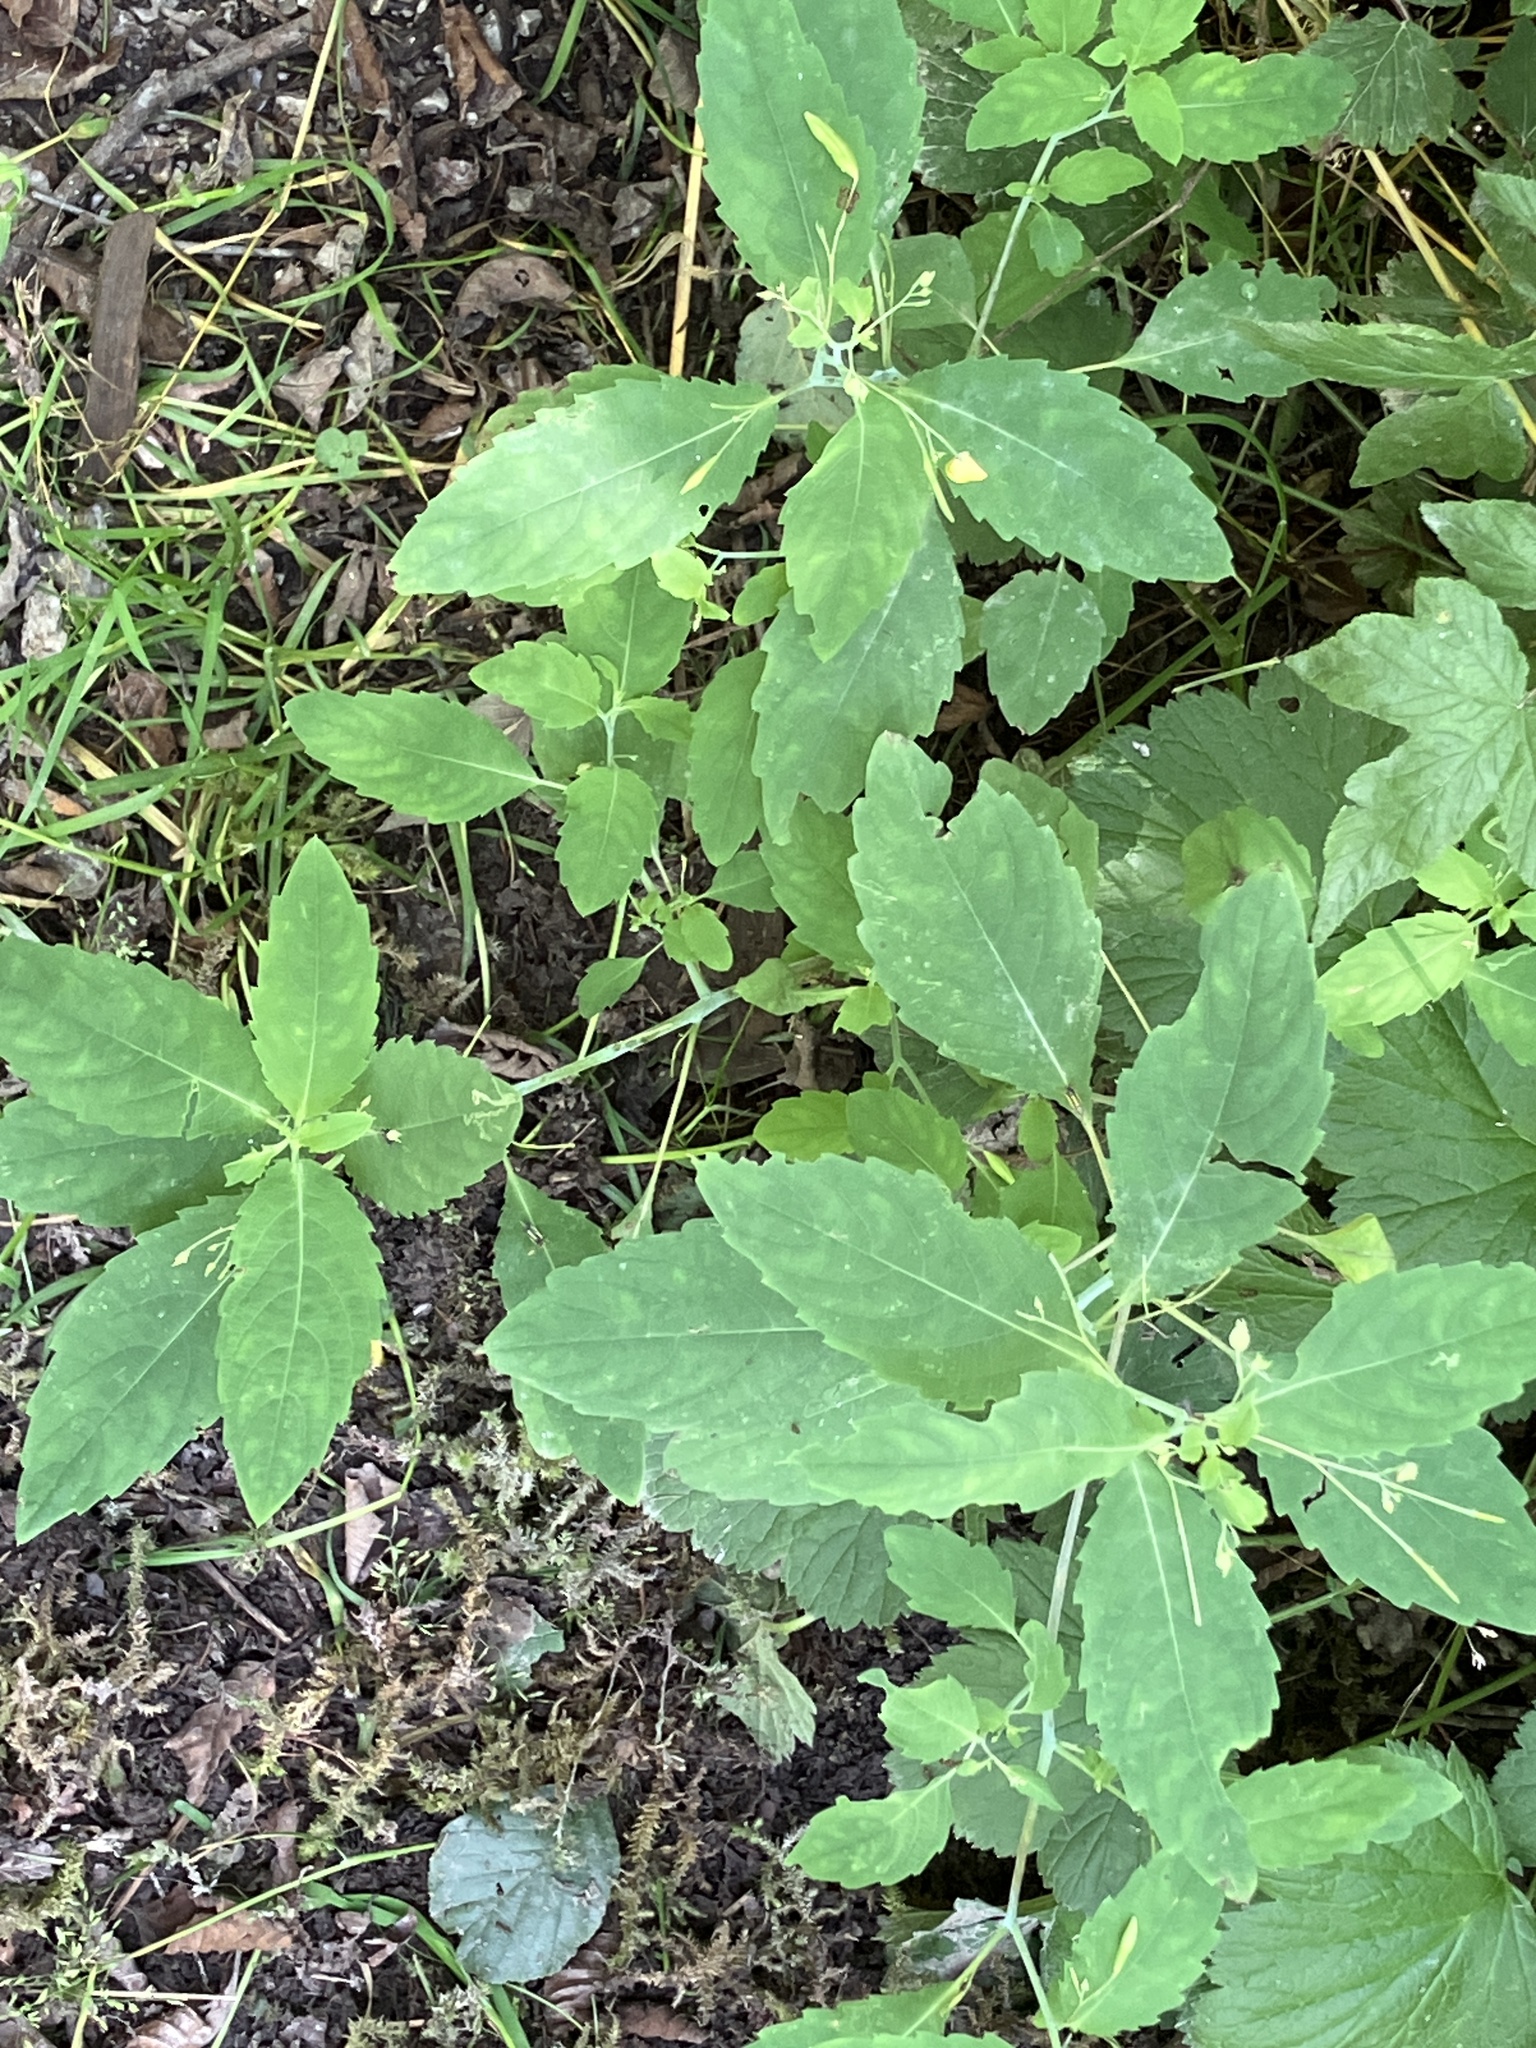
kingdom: Plantae
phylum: Tracheophyta
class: Magnoliopsida
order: Ericales
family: Balsaminaceae
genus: Impatiens
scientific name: Impatiens noli-tangere
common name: Touch-me-not balsam
